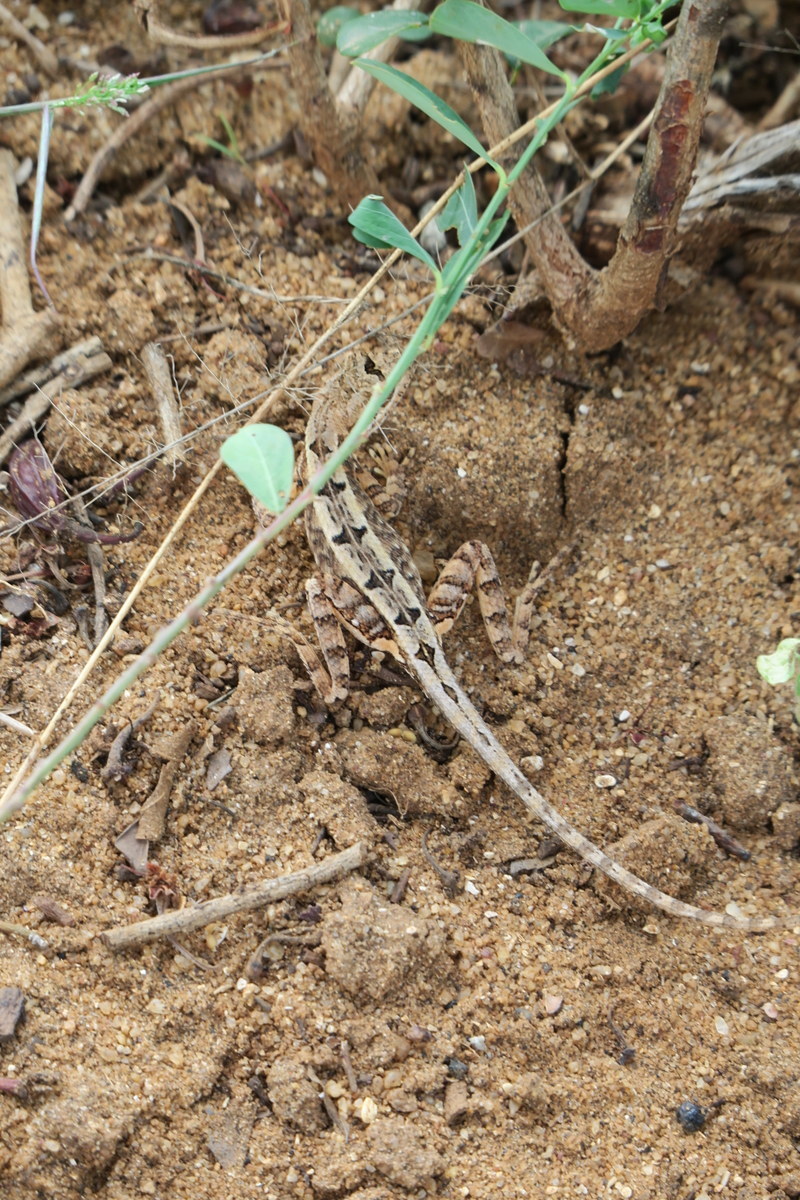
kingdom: Animalia
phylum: Chordata
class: Squamata
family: Agamidae
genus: Sitana
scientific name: Sitana ponticeriana
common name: Pondichéry fan throated lizard
